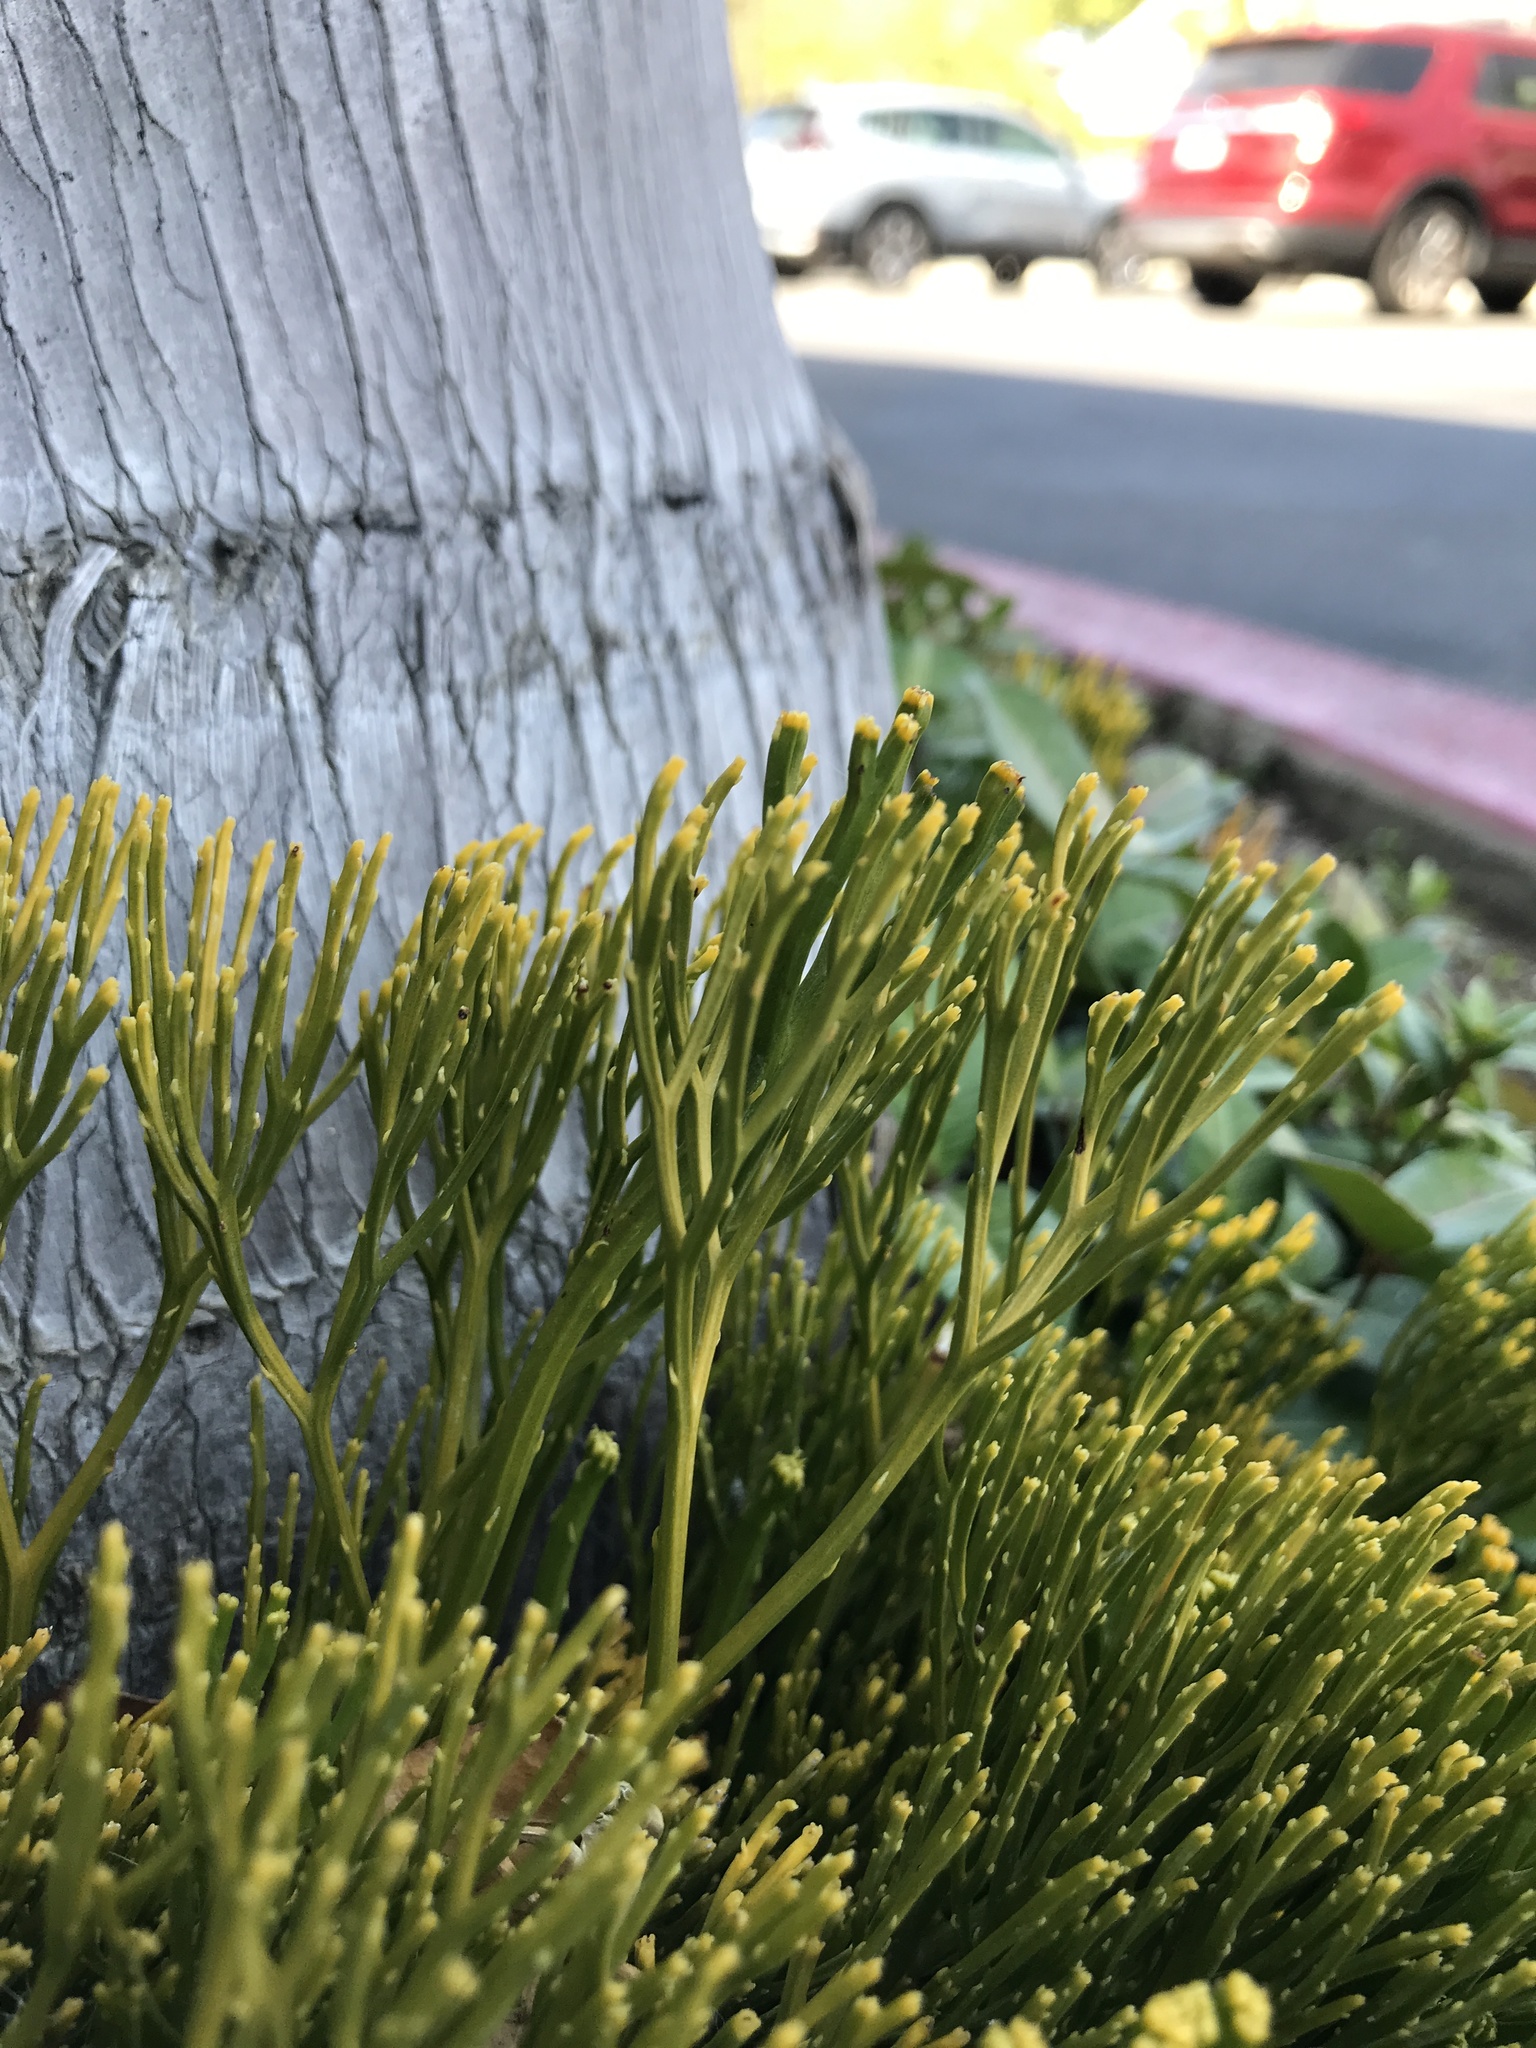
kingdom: Plantae
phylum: Tracheophyta
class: Polypodiopsida
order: Psilotales
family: Psilotaceae
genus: Psilotum
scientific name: Psilotum nudum
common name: Skeleton fork fern
